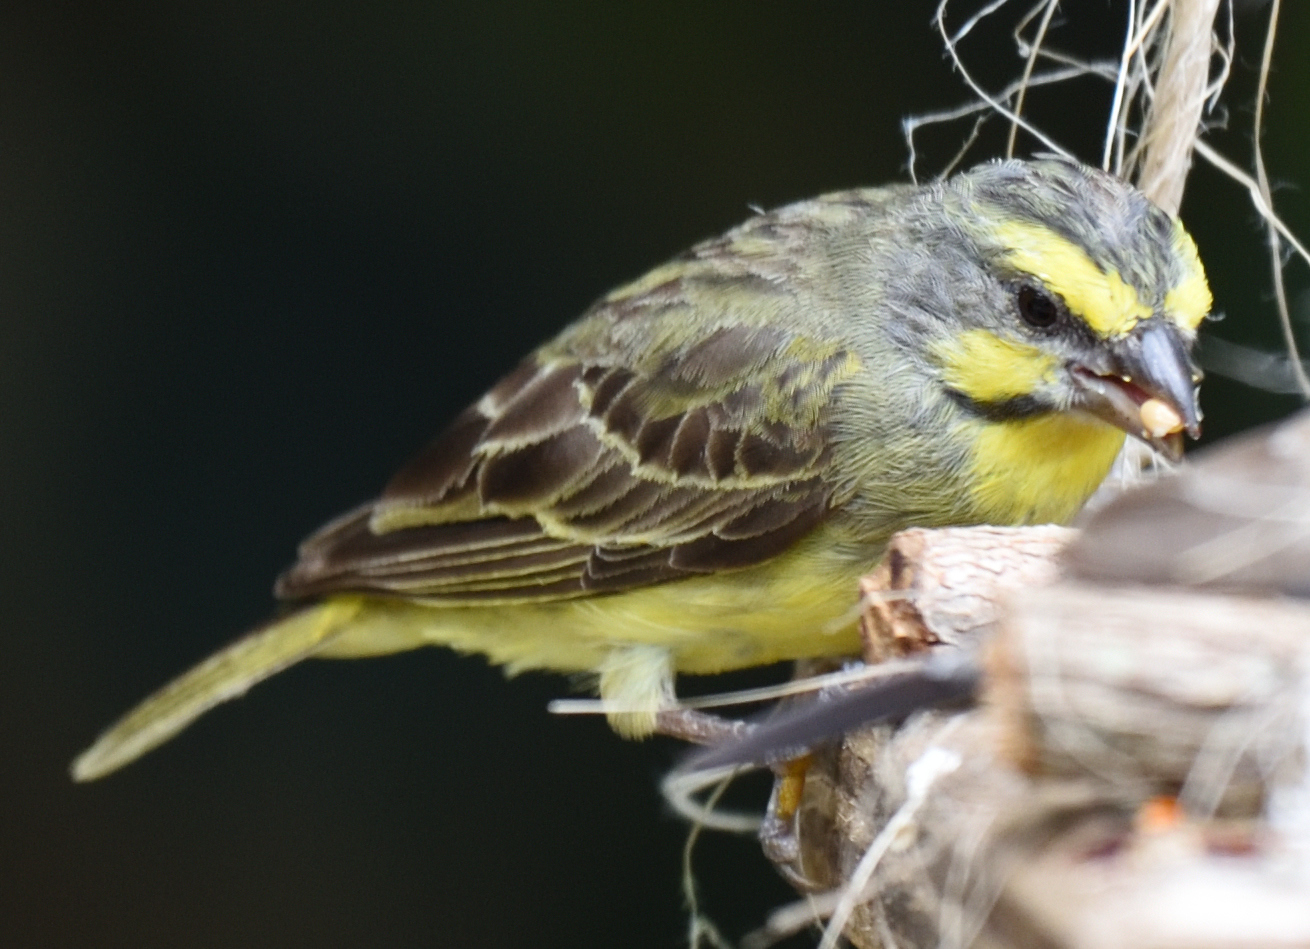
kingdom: Animalia
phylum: Chordata
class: Aves
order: Passeriformes
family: Fringillidae
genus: Crithagra
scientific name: Crithagra mozambica
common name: Yellow-fronted canary
